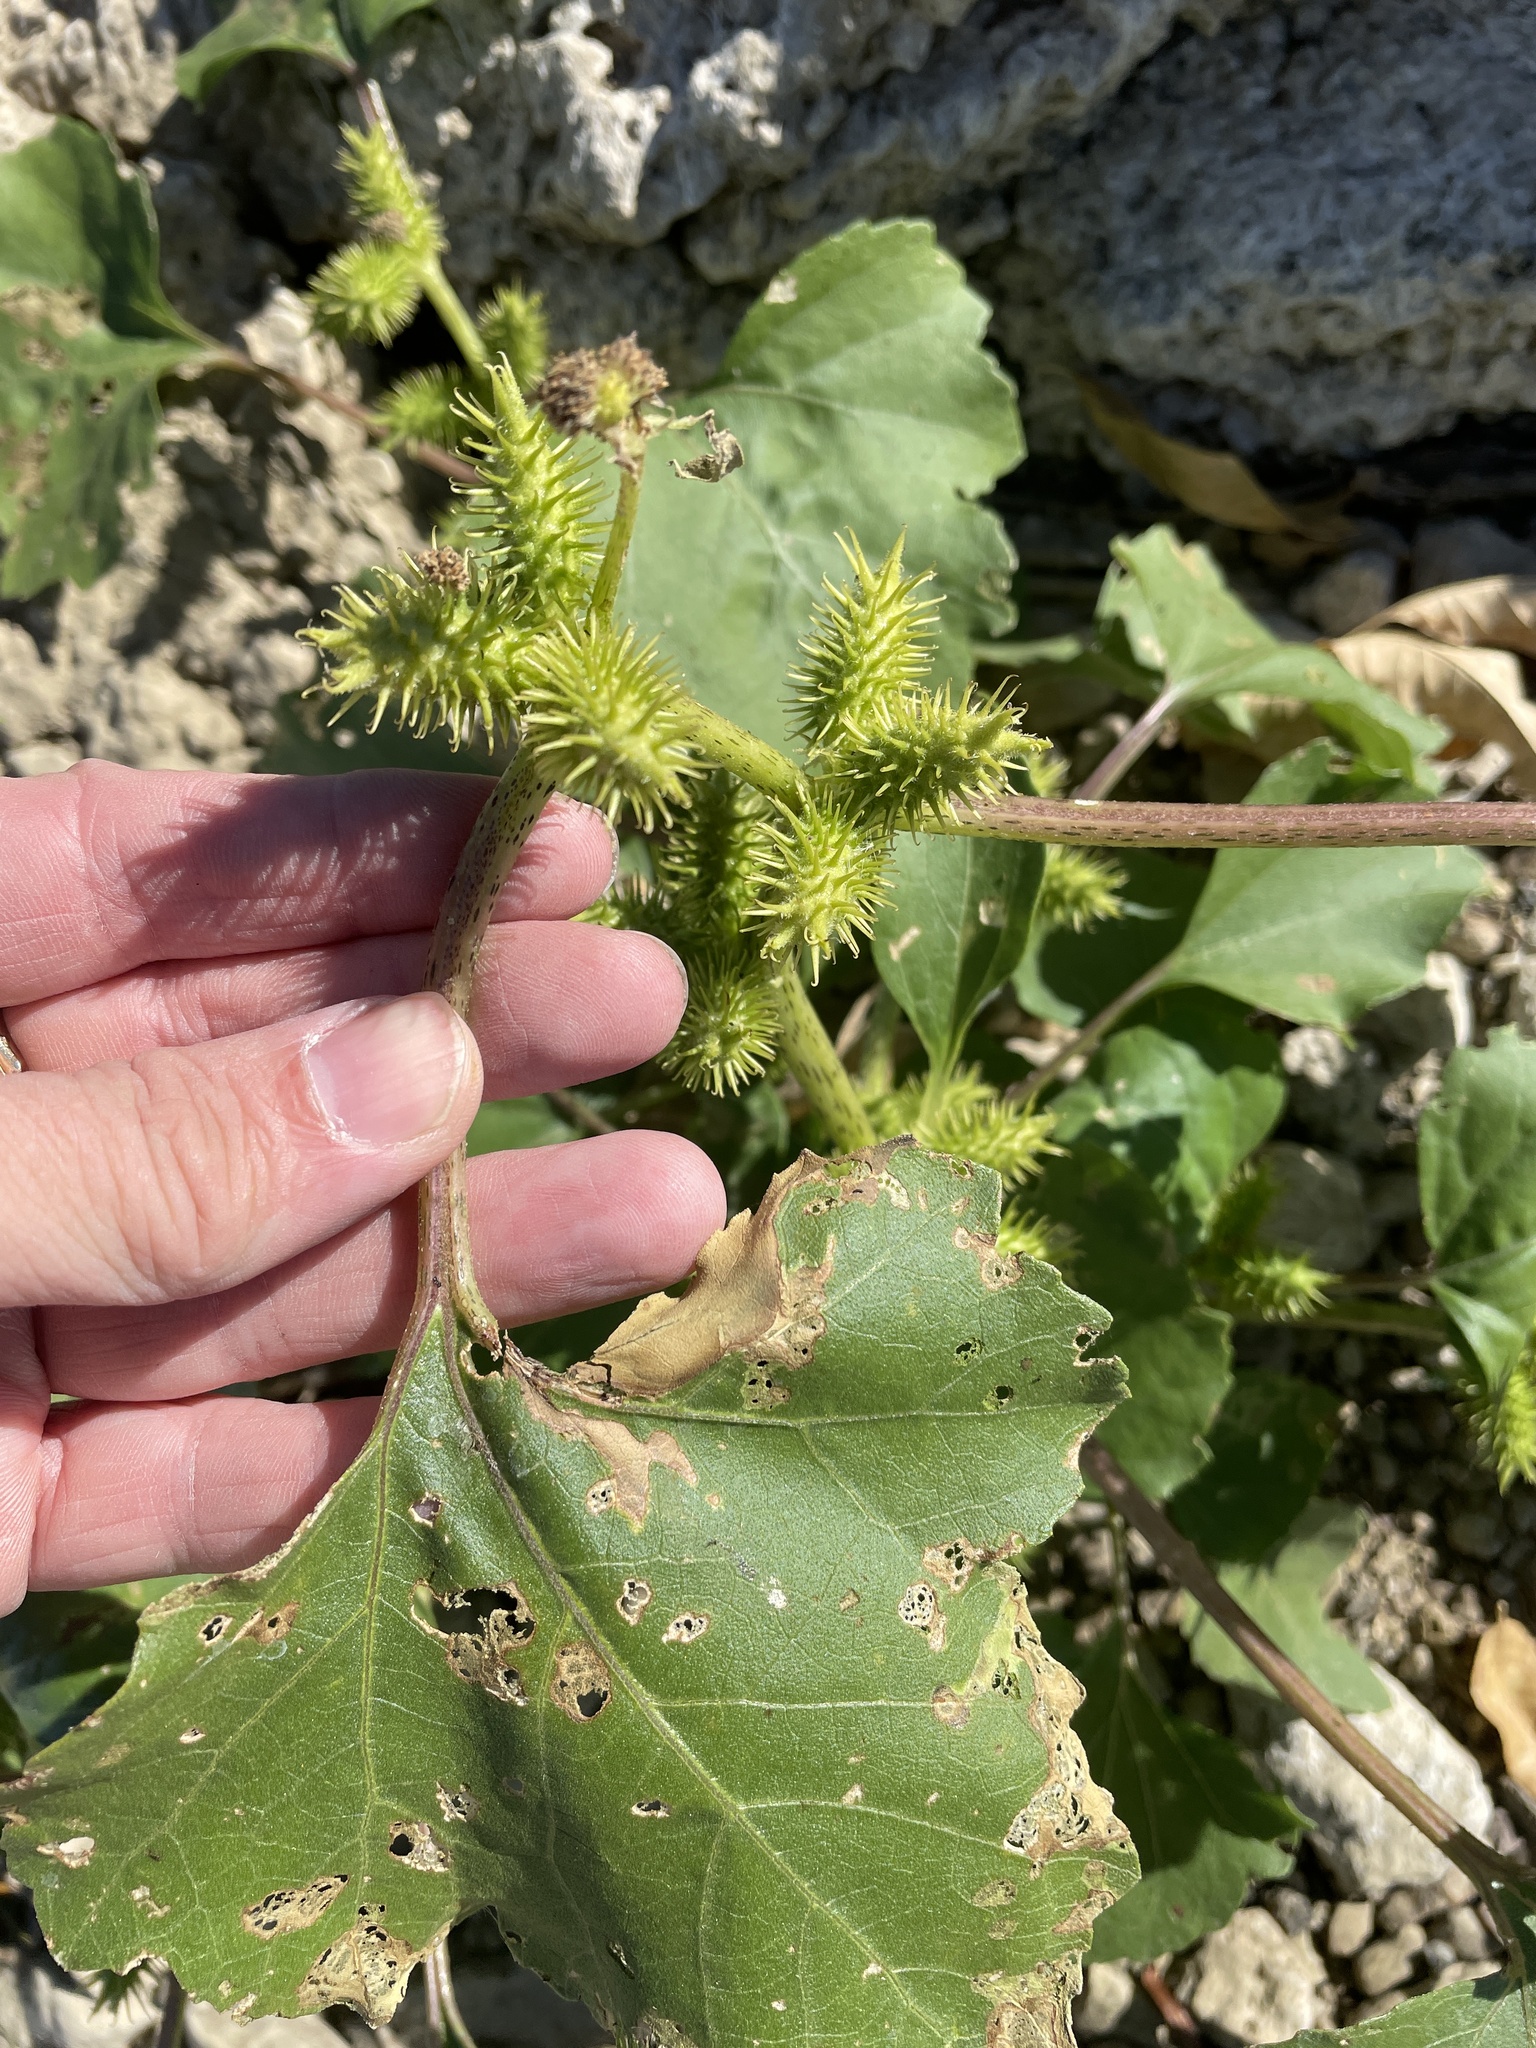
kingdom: Plantae
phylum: Tracheophyta
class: Magnoliopsida
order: Asterales
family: Asteraceae
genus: Xanthium
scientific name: Xanthium strumarium
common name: Rough cocklebur
